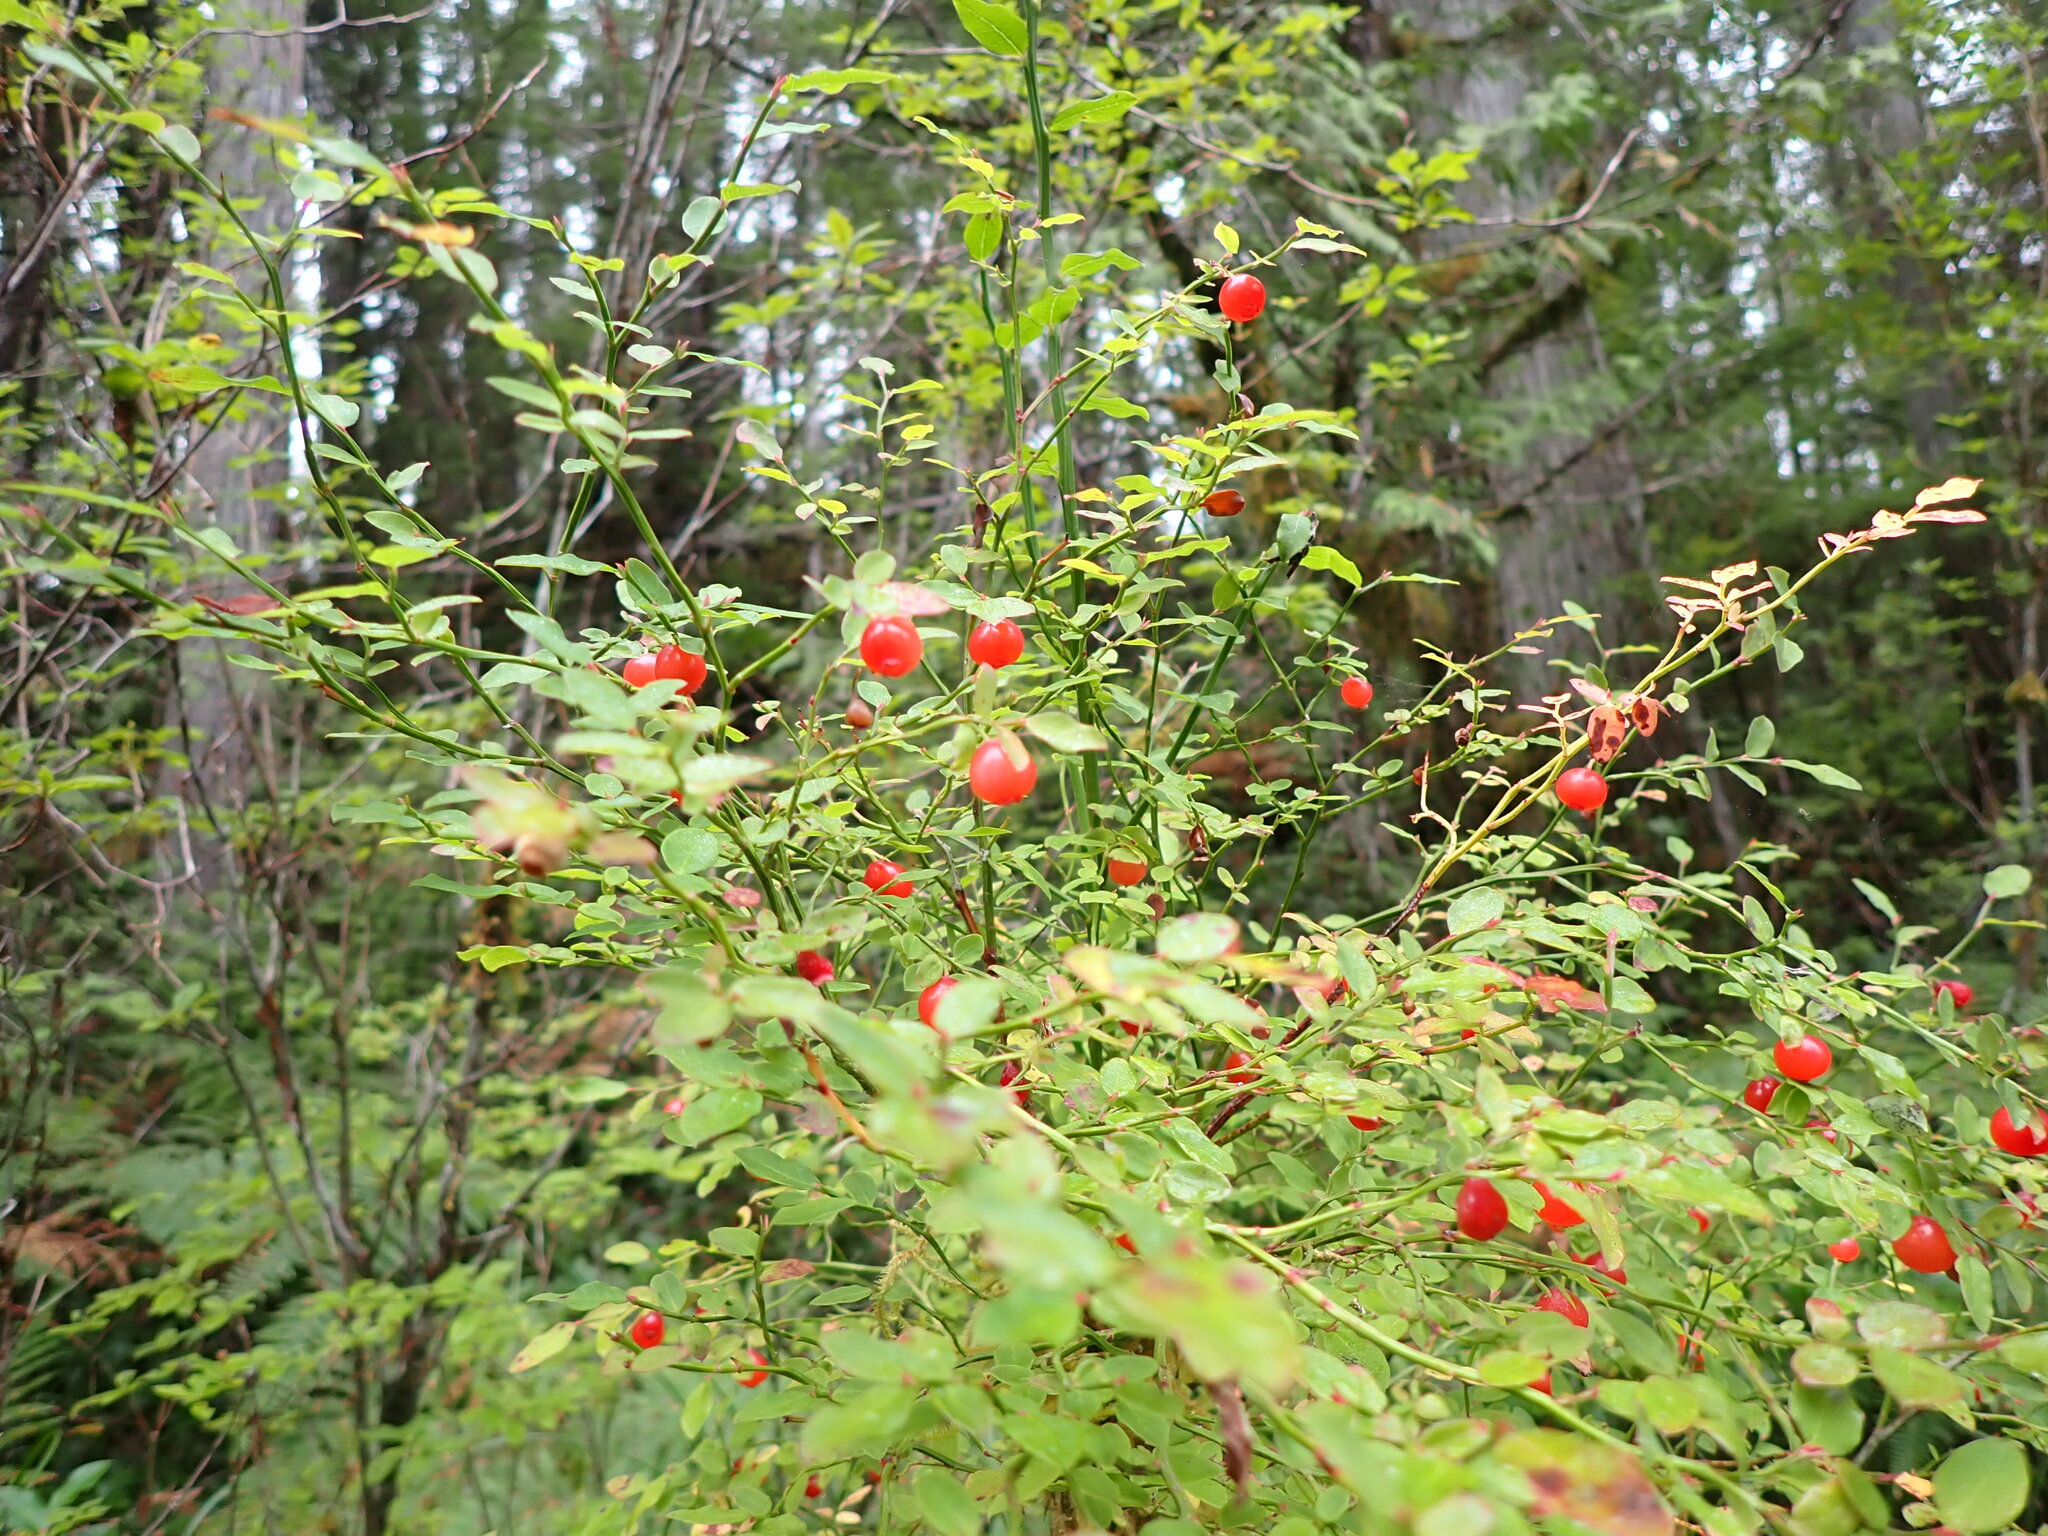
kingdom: Plantae
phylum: Tracheophyta
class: Magnoliopsida
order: Ericales
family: Ericaceae
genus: Vaccinium
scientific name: Vaccinium parvifolium
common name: Red-huckleberry
